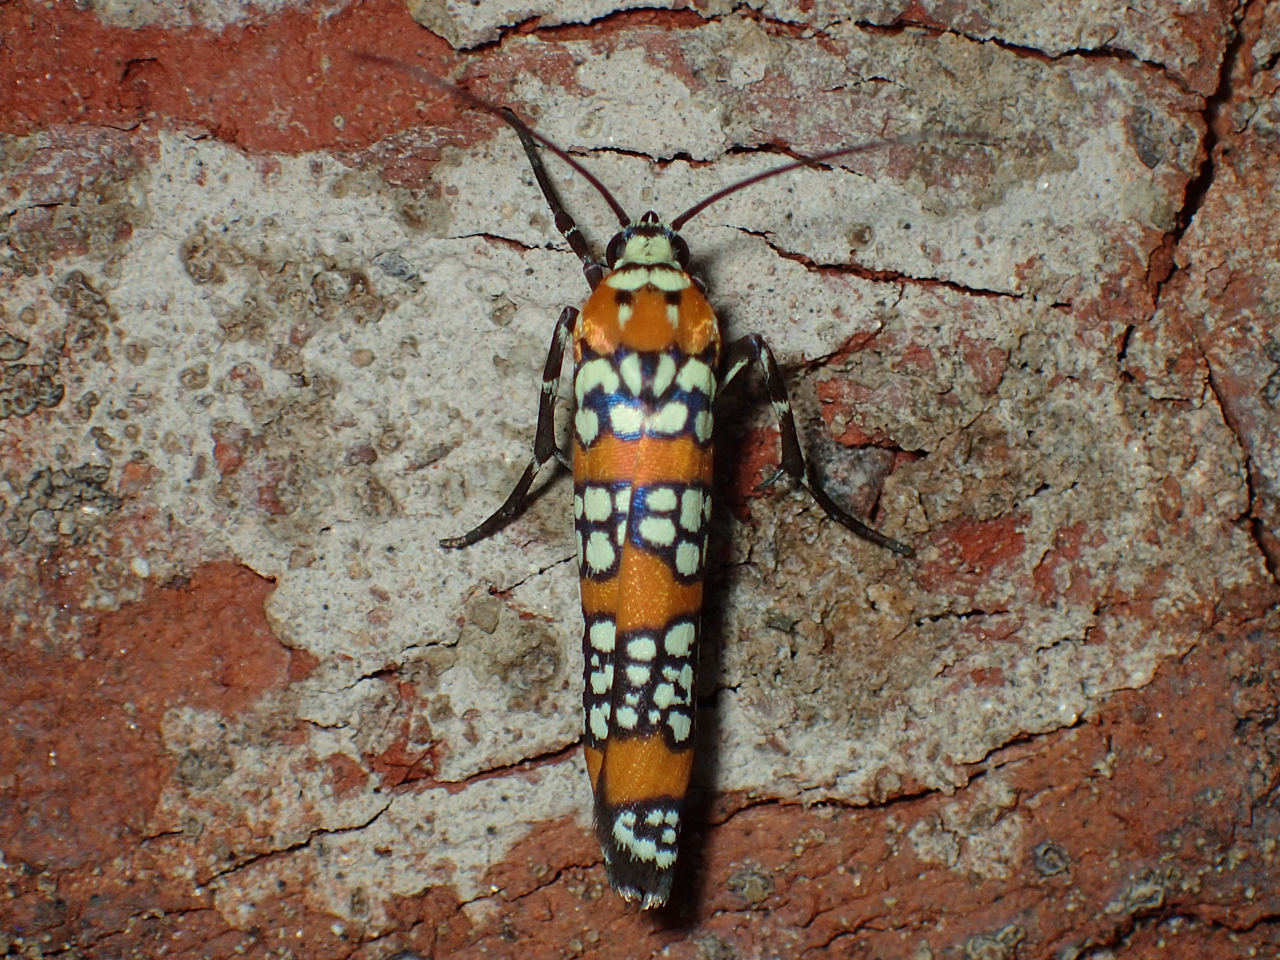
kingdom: Animalia
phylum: Arthropoda
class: Insecta
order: Lepidoptera
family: Attevidae
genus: Atteva
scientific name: Atteva punctella
